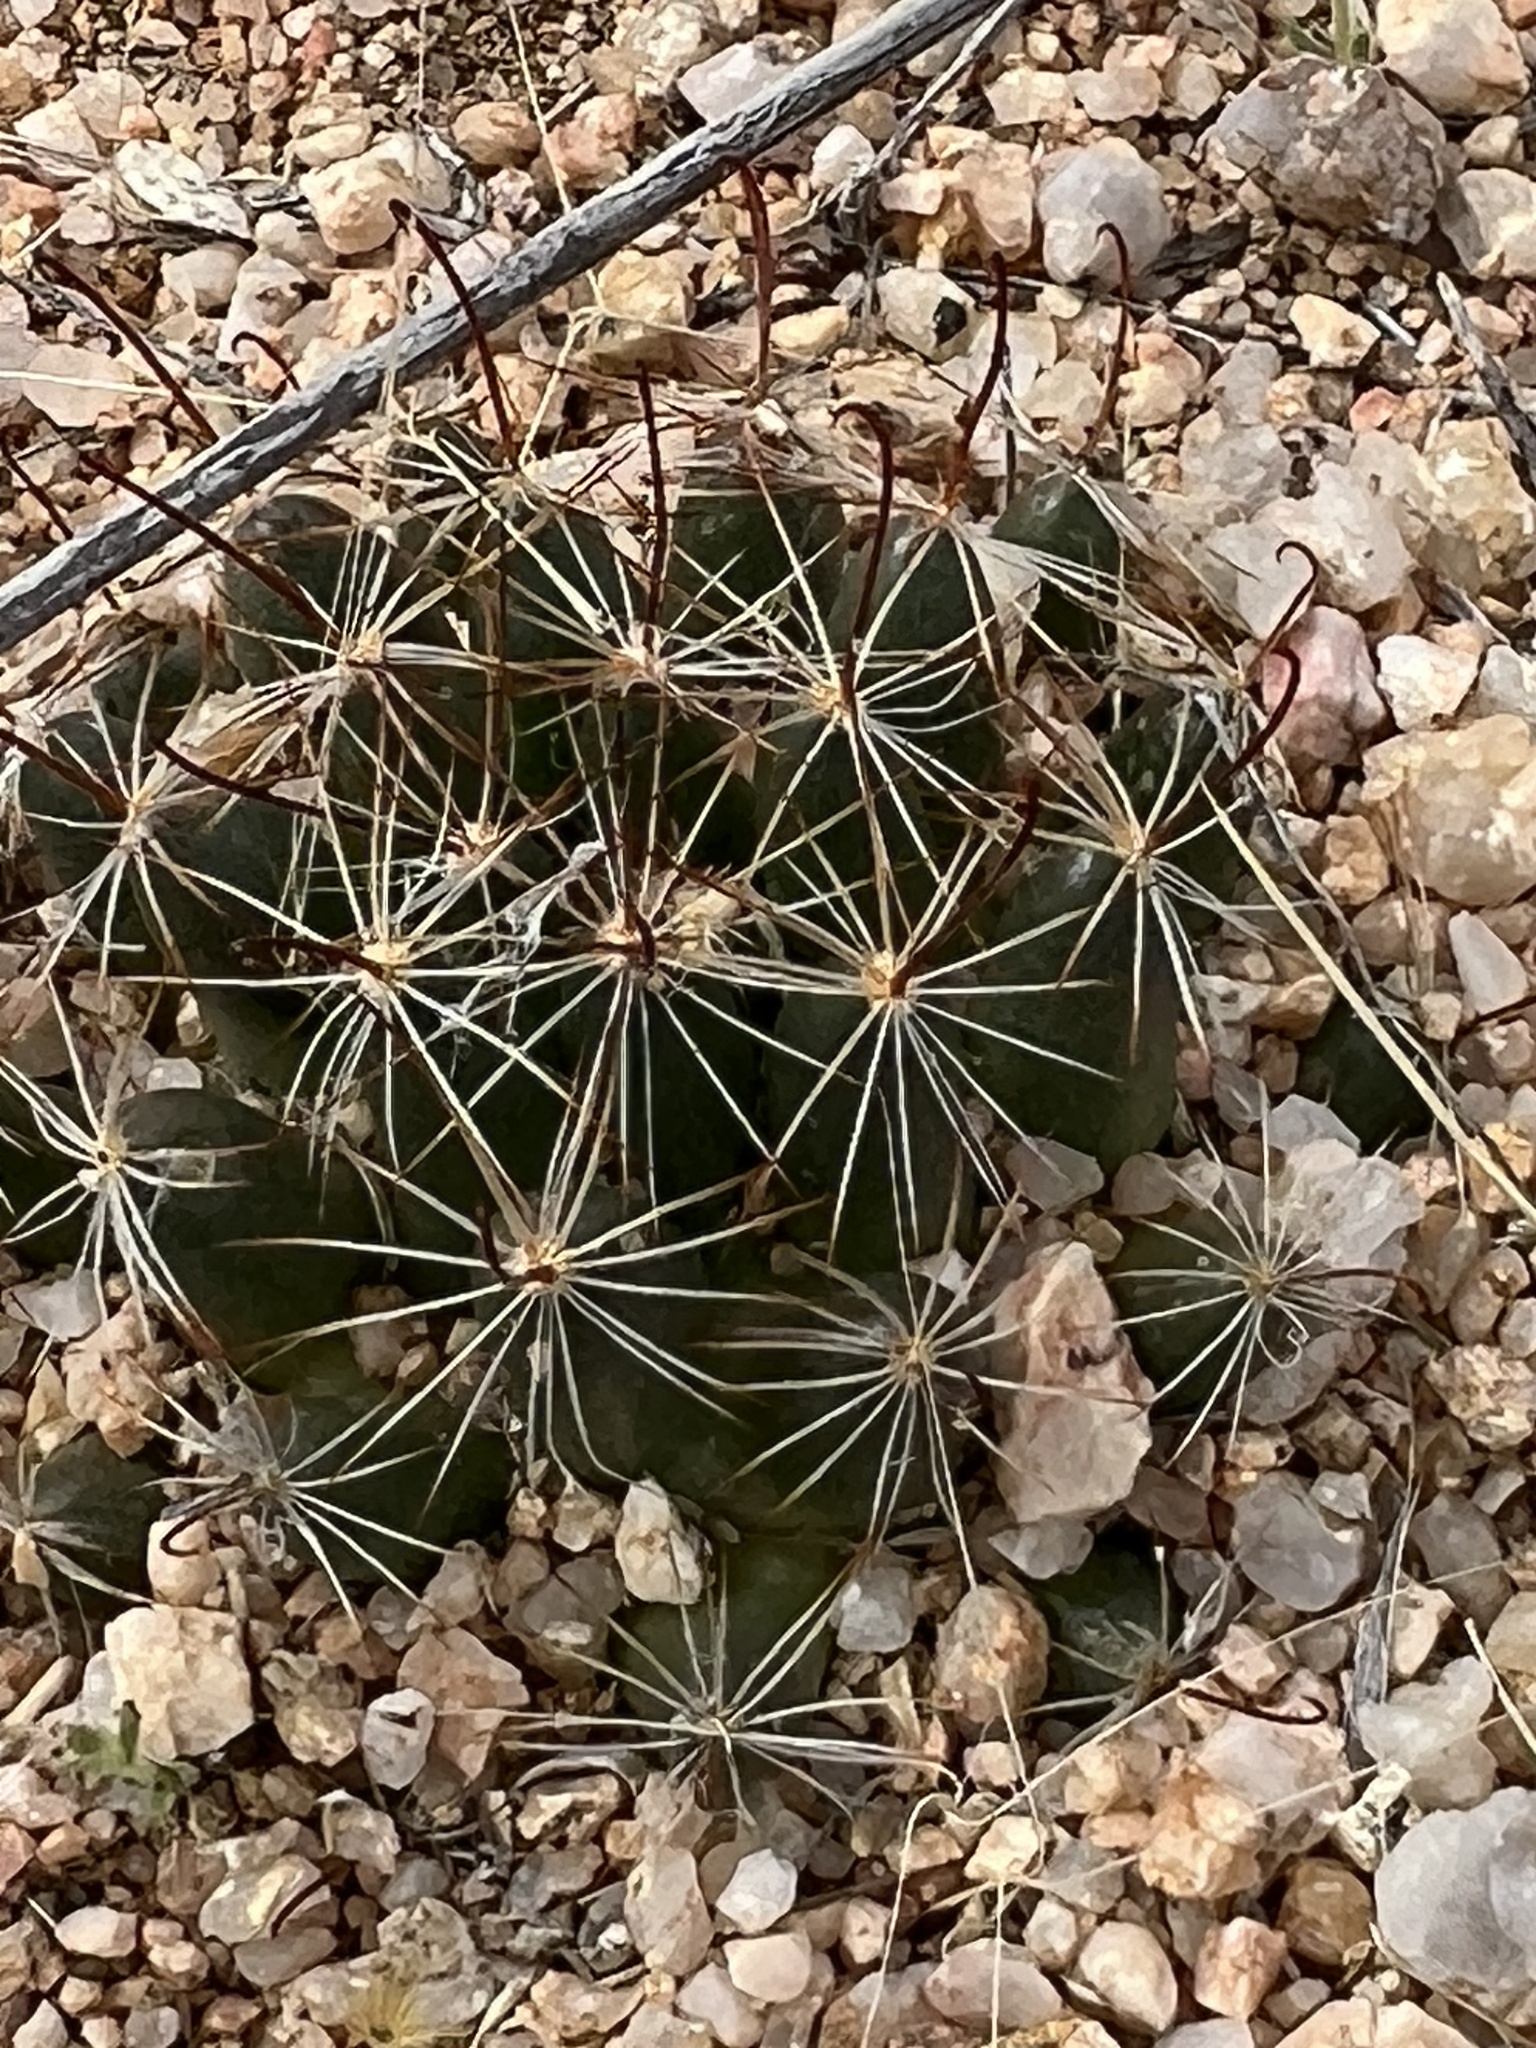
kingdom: Plantae
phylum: Tracheophyta
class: Magnoliopsida
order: Caryophyllales
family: Cactaceae
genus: Cochemiea
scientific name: Cochemiea wrightii
